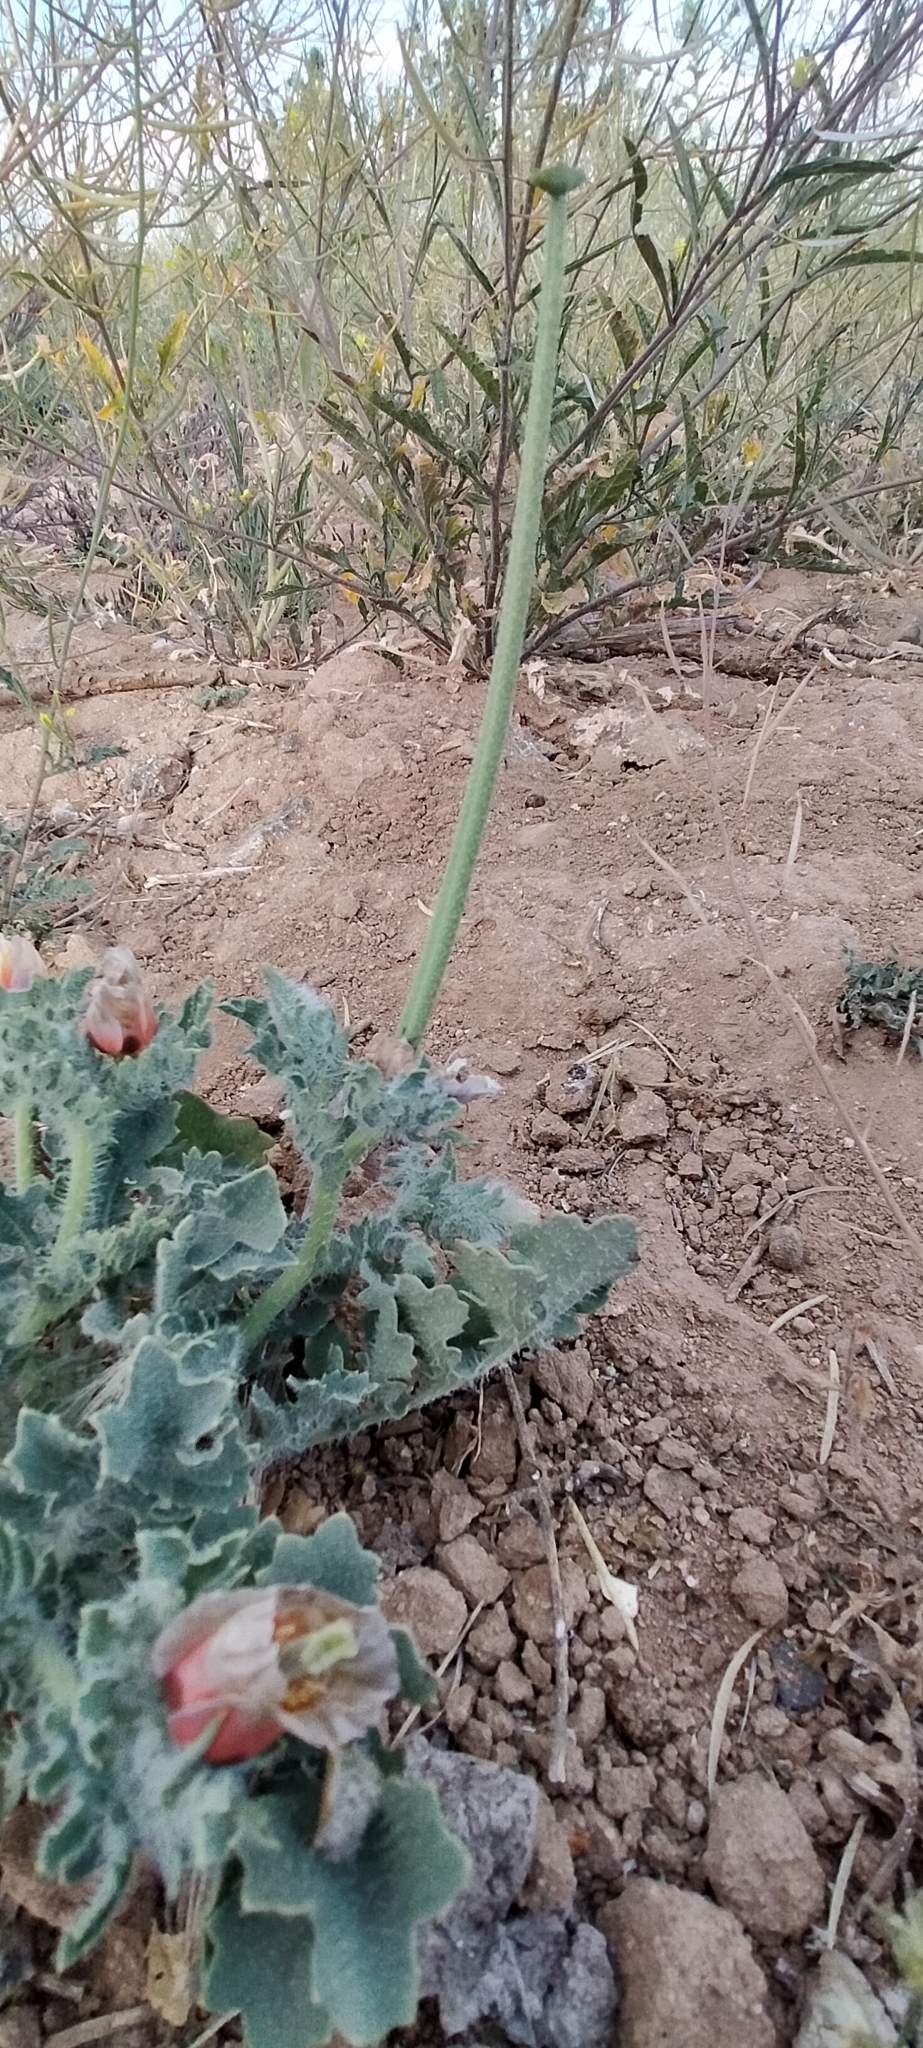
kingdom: Plantae
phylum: Tracheophyta
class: Magnoliopsida
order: Ranunculales
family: Papaveraceae
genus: Glaucium
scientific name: Glaucium corniculatum
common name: Red horned-poppy
